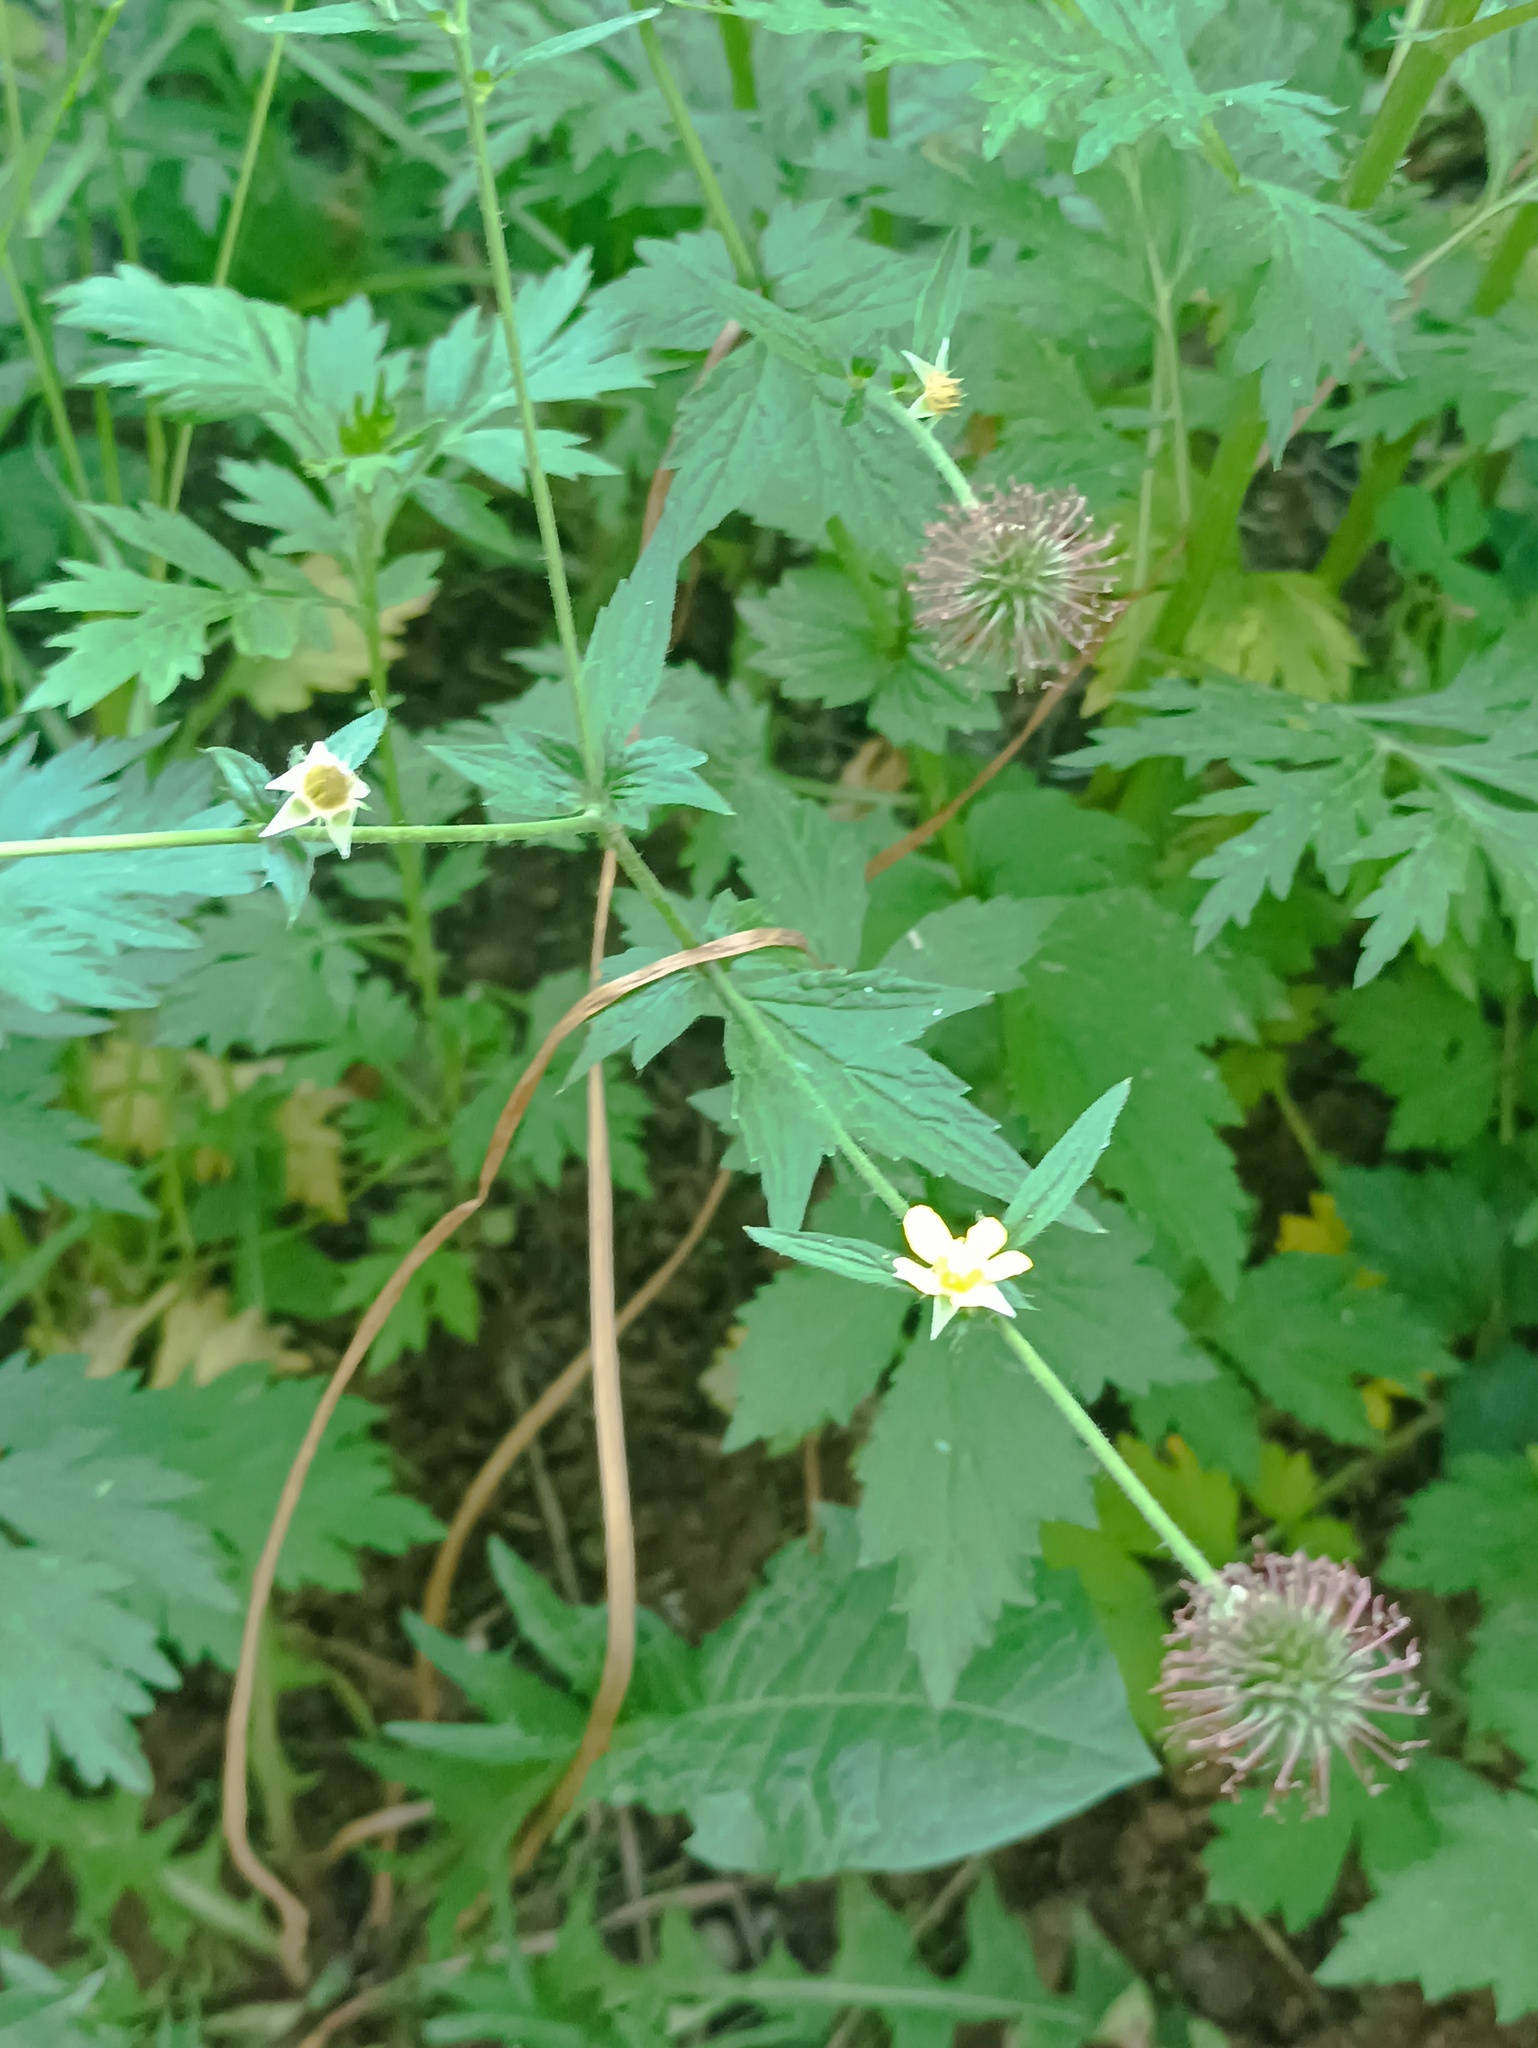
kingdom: Plantae
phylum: Tracheophyta
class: Magnoliopsida
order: Rosales
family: Rosaceae
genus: Geum
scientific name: Geum urbanum
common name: Wood avens
